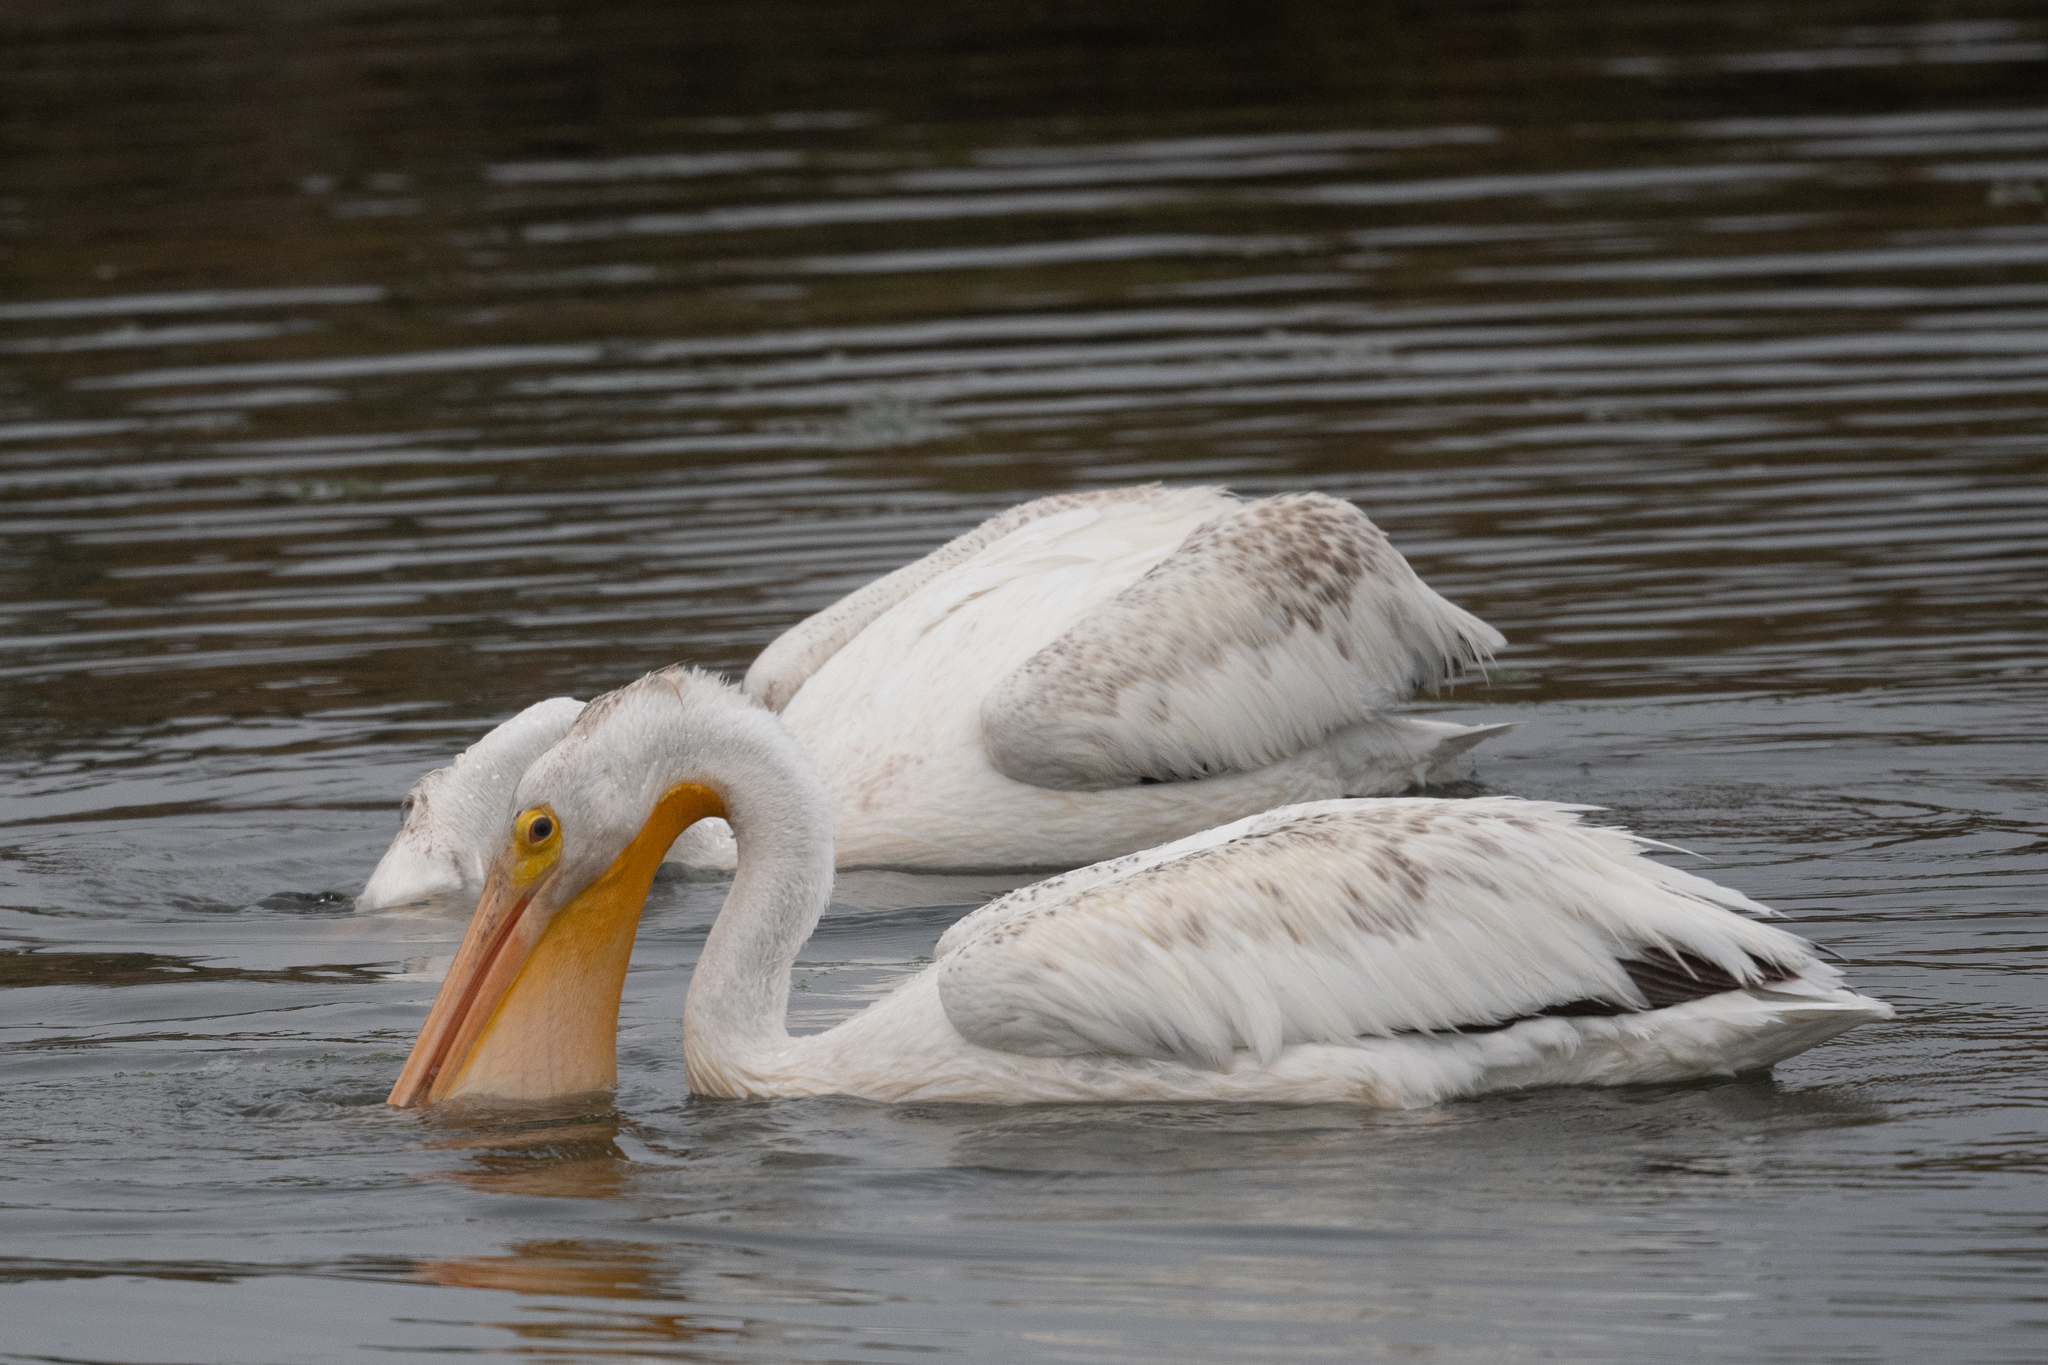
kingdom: Animalia
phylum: Chordata
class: Aves
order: Pelecaniformes
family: Pelecanidae
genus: Pelecanus
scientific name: Pelecanus erythrorhynchos
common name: American white pelican
